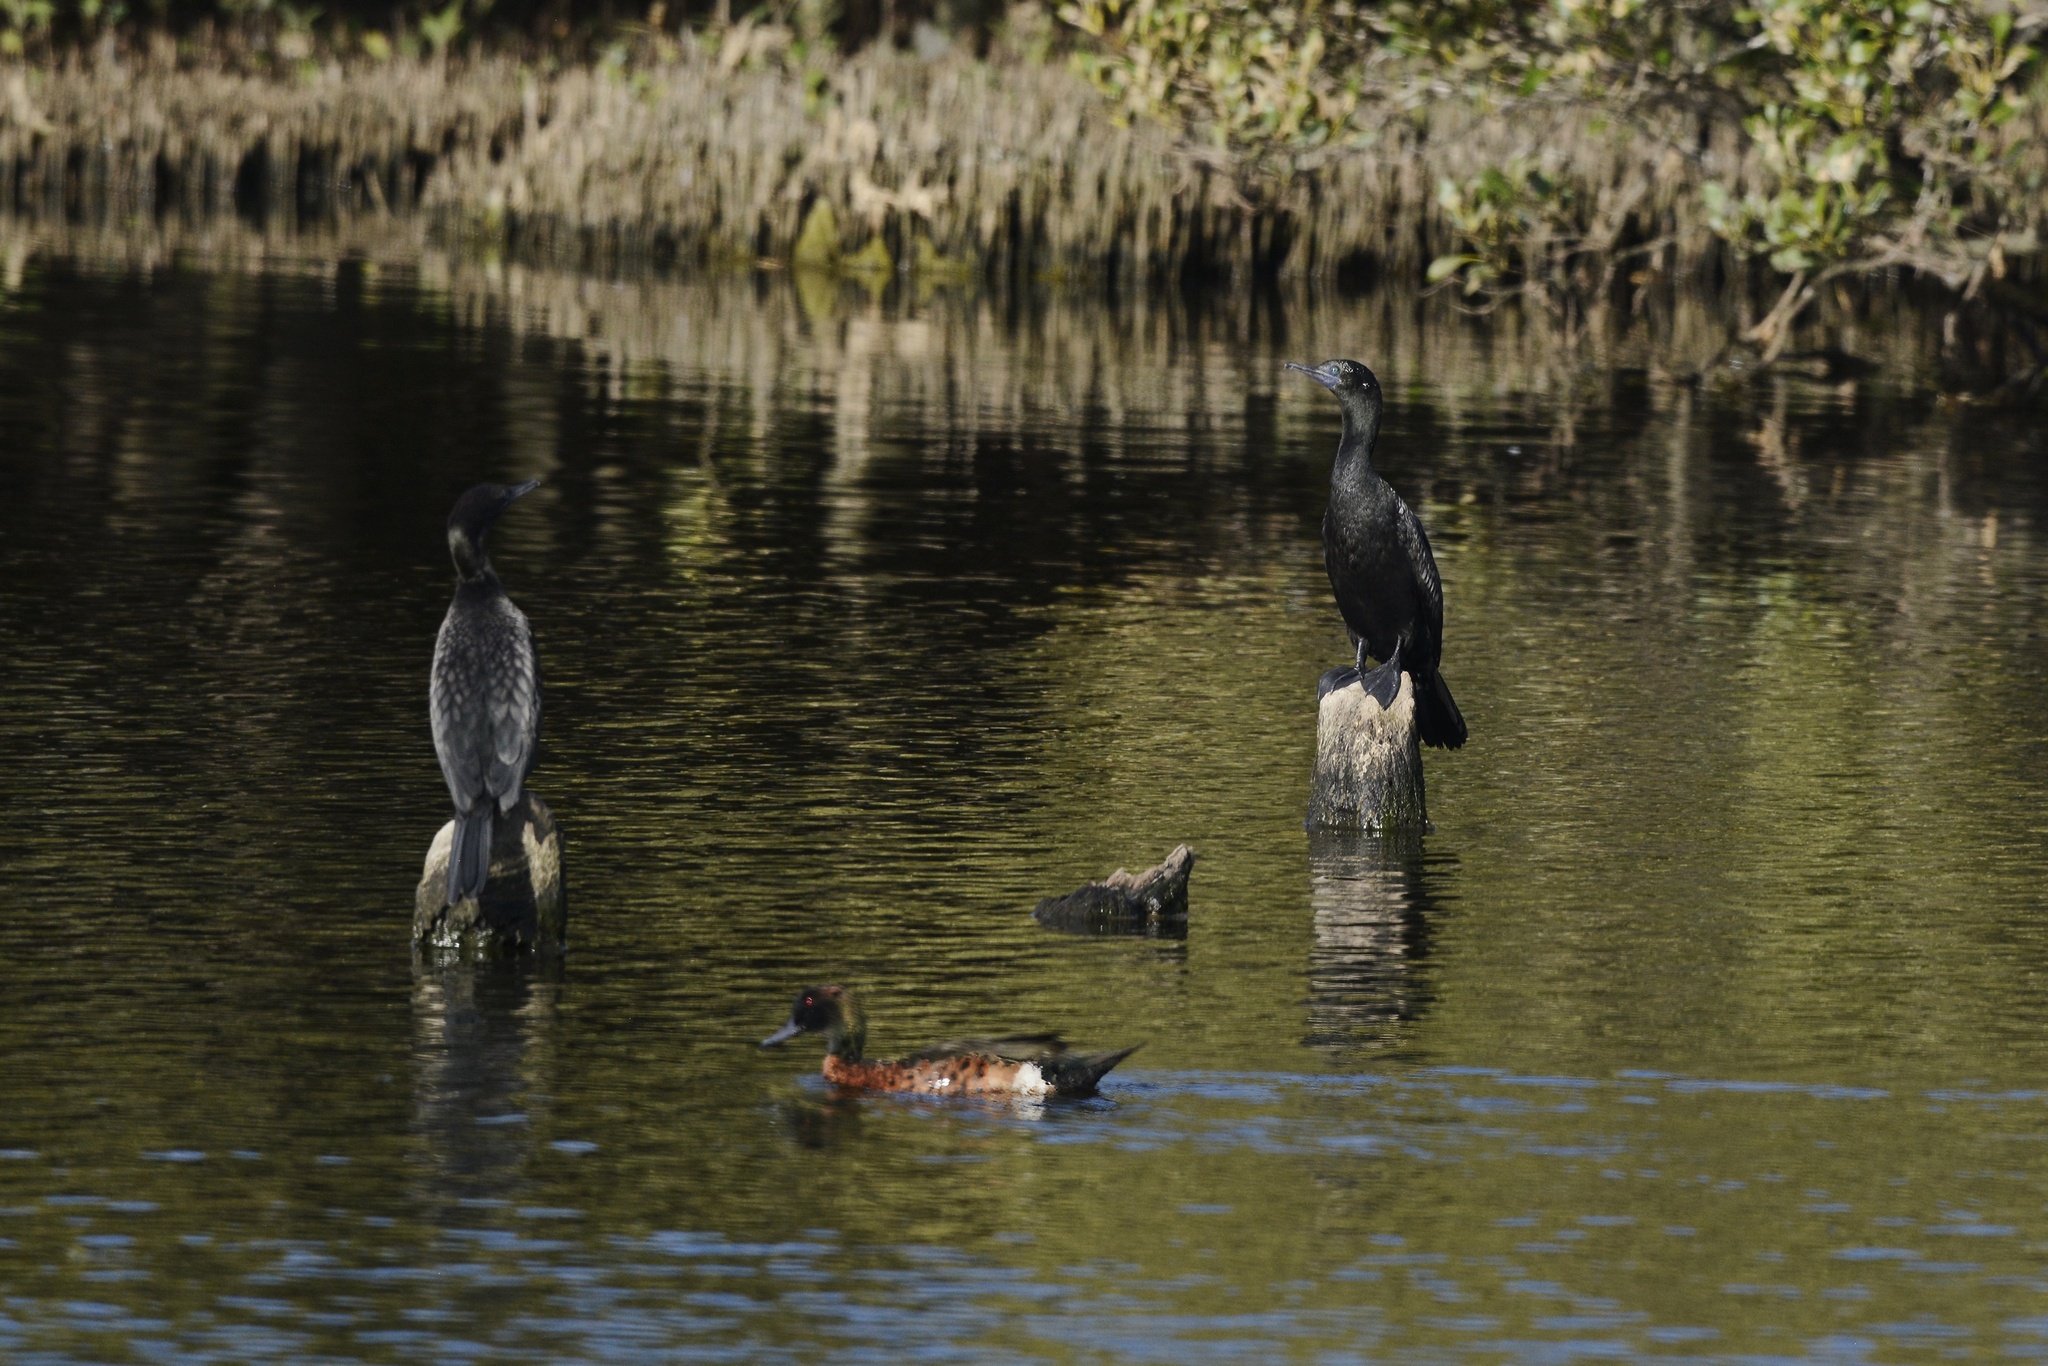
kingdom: Animalia
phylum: Chordata
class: Aves
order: Suliformes
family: Phalacrocoracidae
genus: Phalacrocorax
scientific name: Phalacrocorax sulcirostris
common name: Little black cormorant
